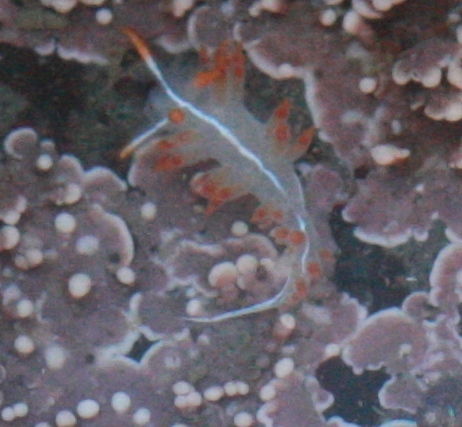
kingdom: Animalia
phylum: Mollusca
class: Gastropoda
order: Nudibranchia
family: Coryphellidae
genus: Coryphella
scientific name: Coryphella trilineata
